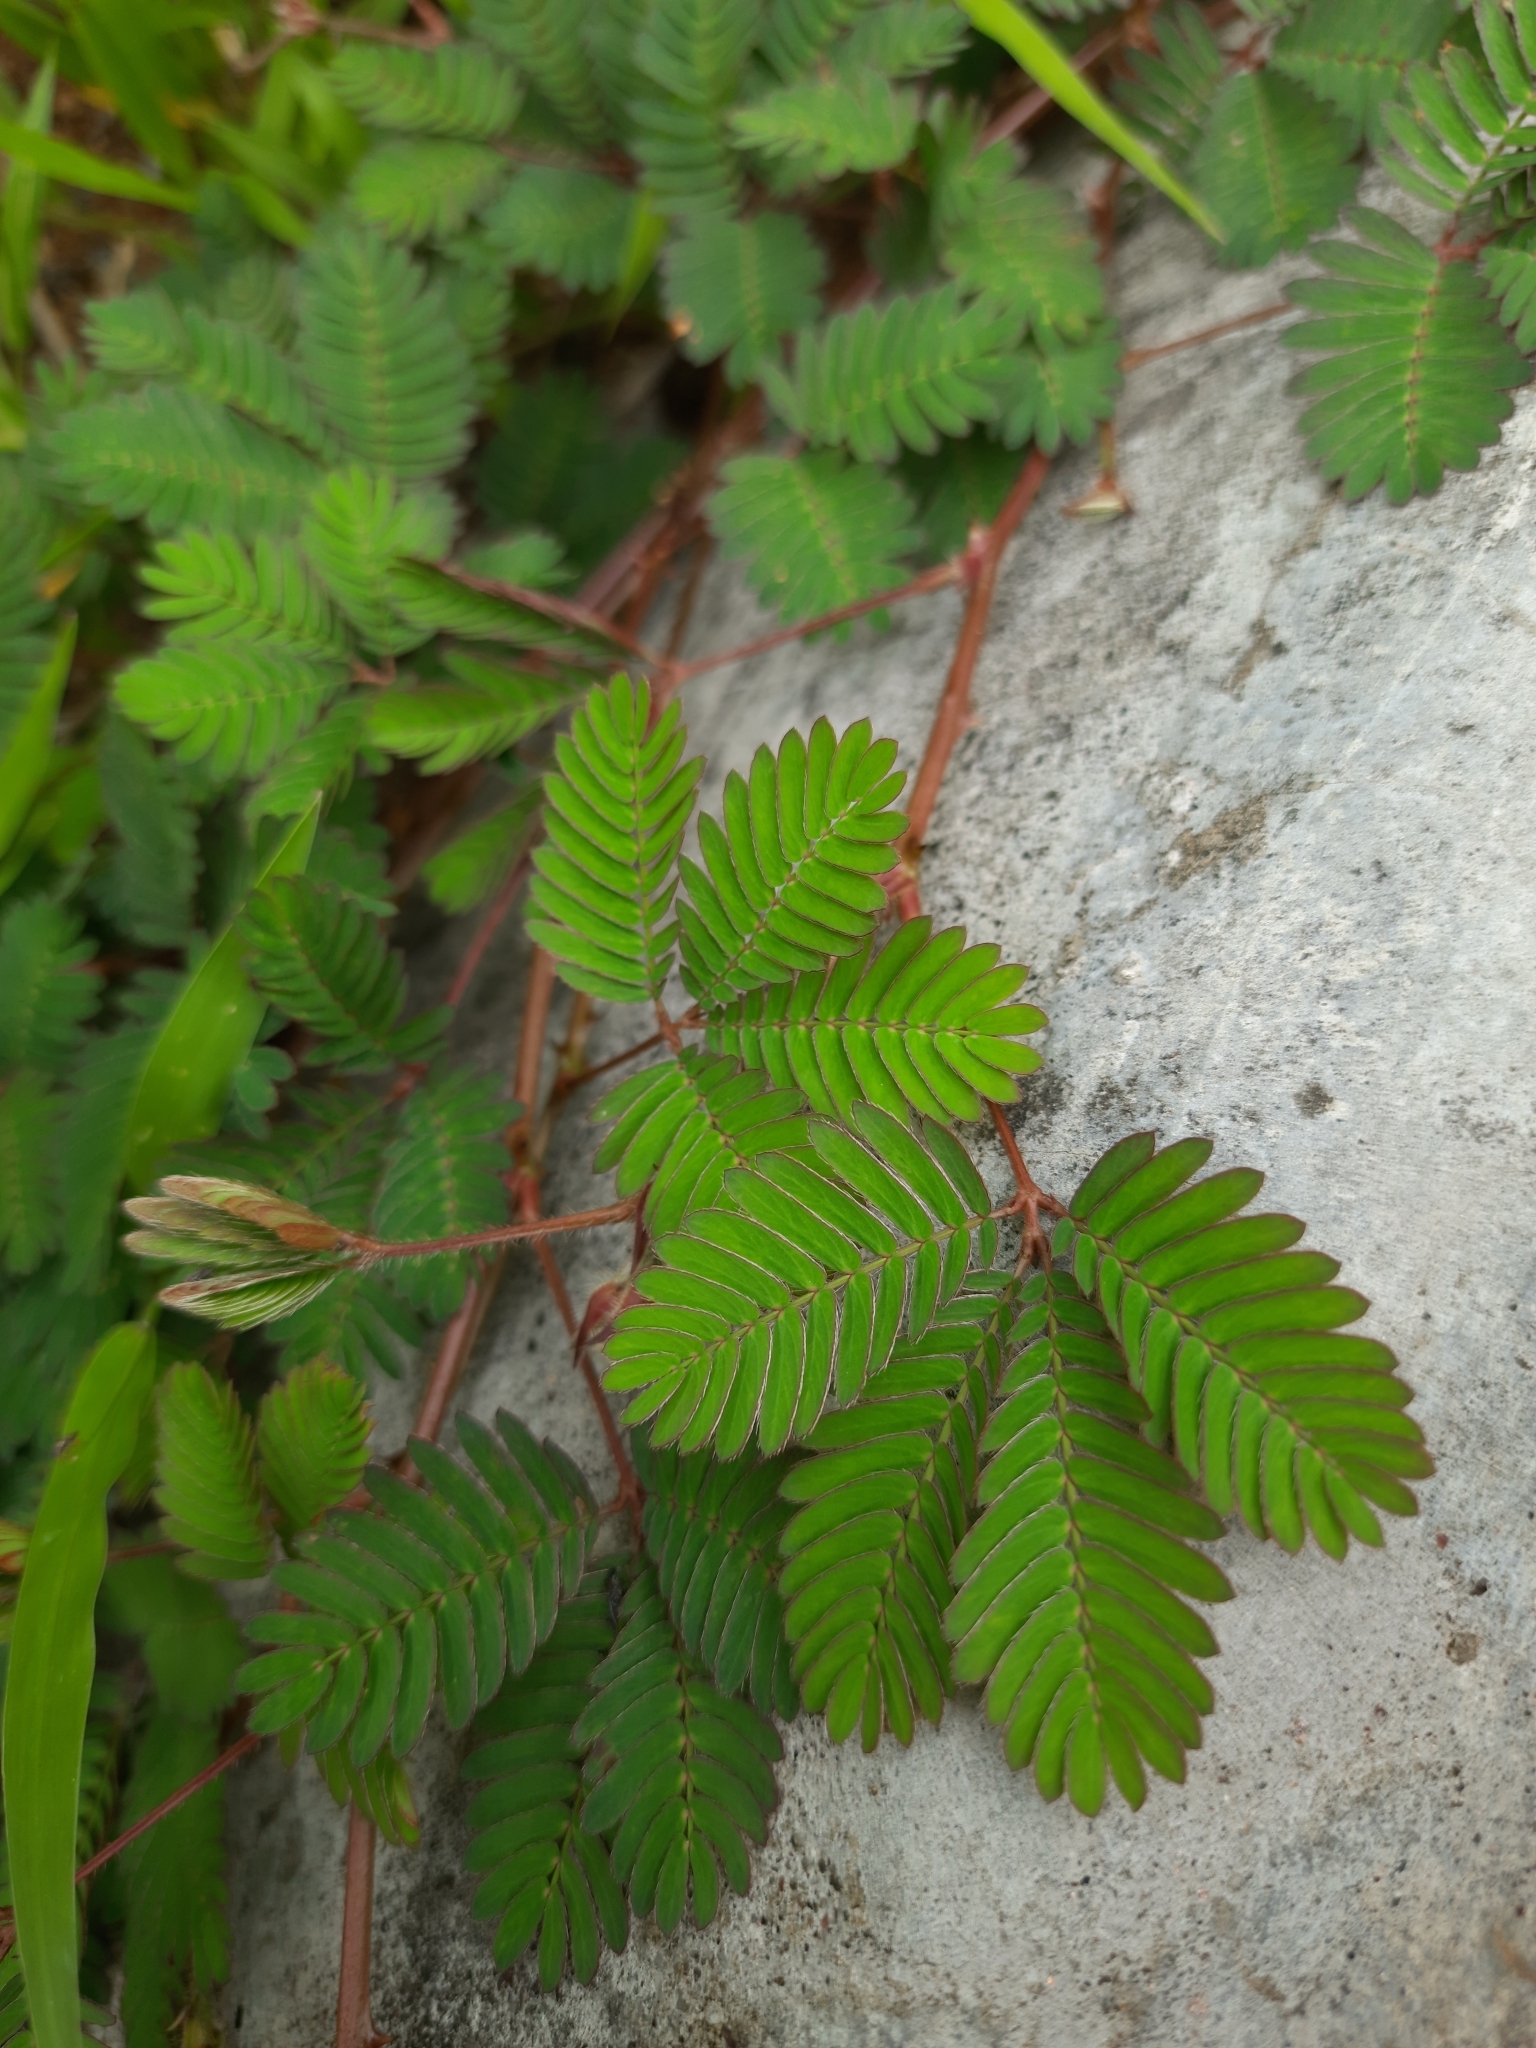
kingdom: Plantae
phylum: Tracheophyta
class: Magnoliopsida
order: Fabales
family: Fabaceae
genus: Mimosa
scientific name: Mimosa pudica
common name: Sensitive plant
